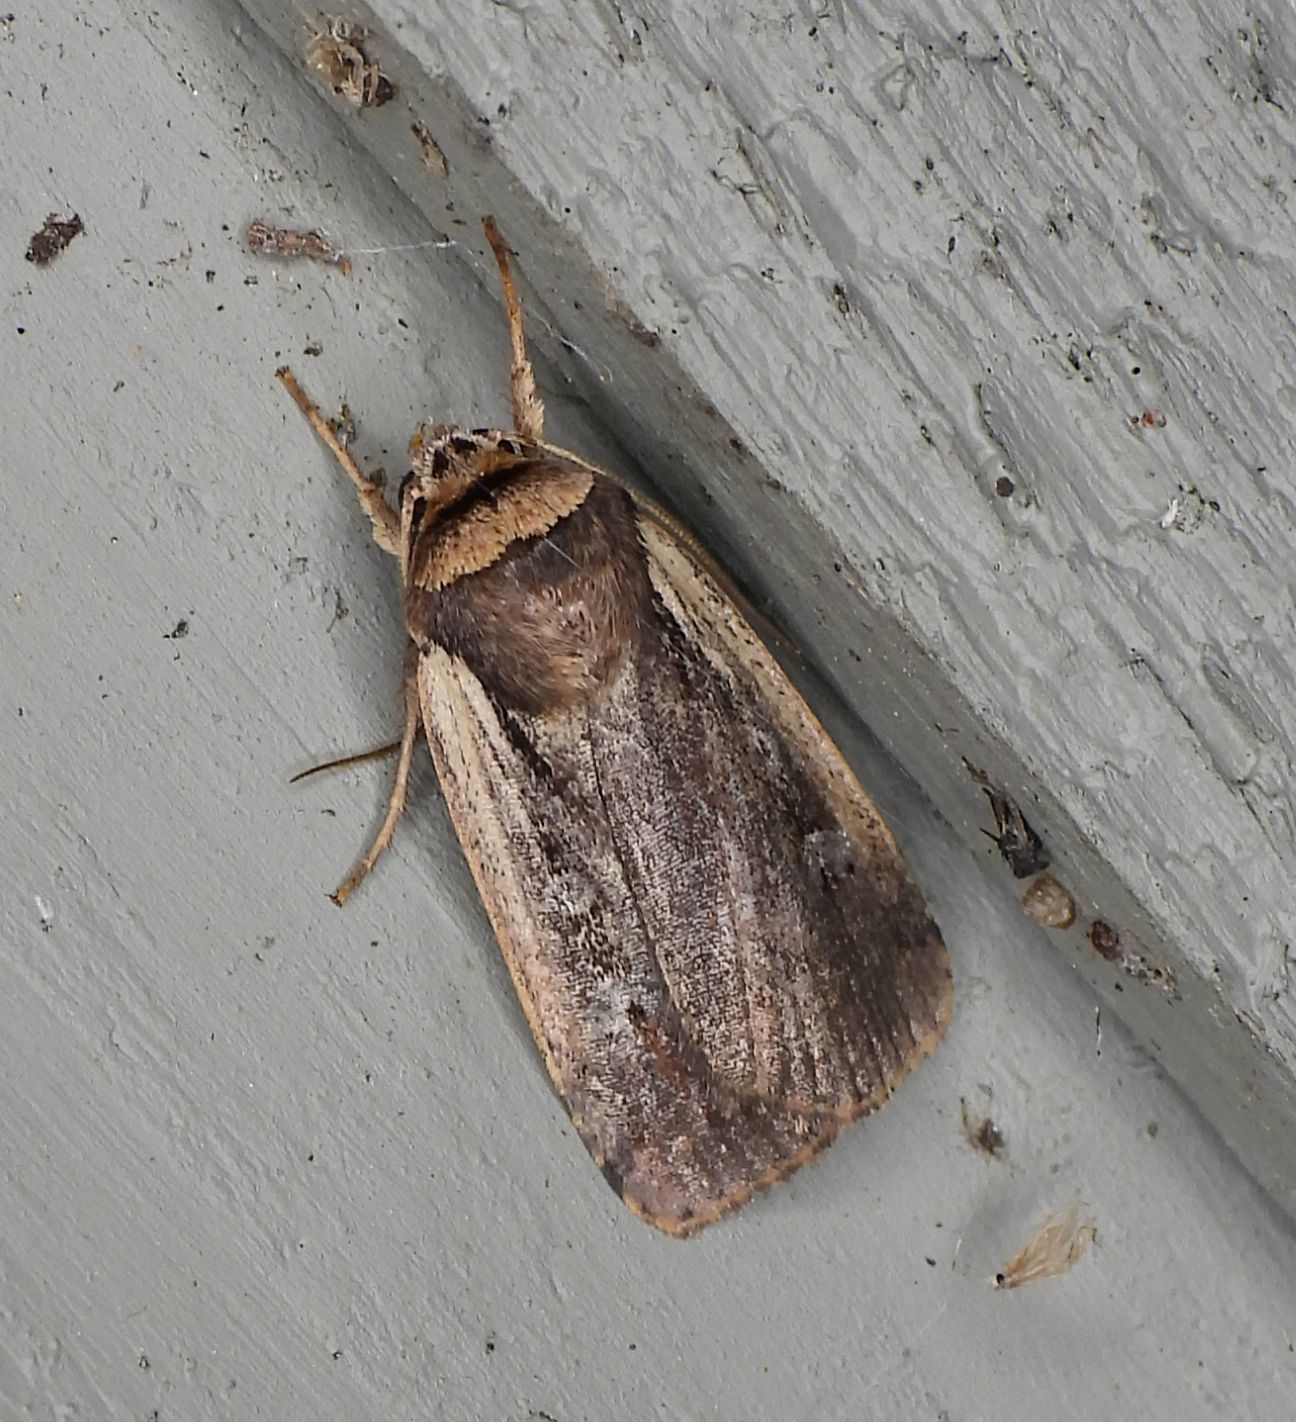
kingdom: Animalia
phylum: Arthropoda
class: Insecta
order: Lepidoptera
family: Noctuidae
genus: Ochropleura
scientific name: Ochropleura implecta
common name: Flame-shouldered dart
